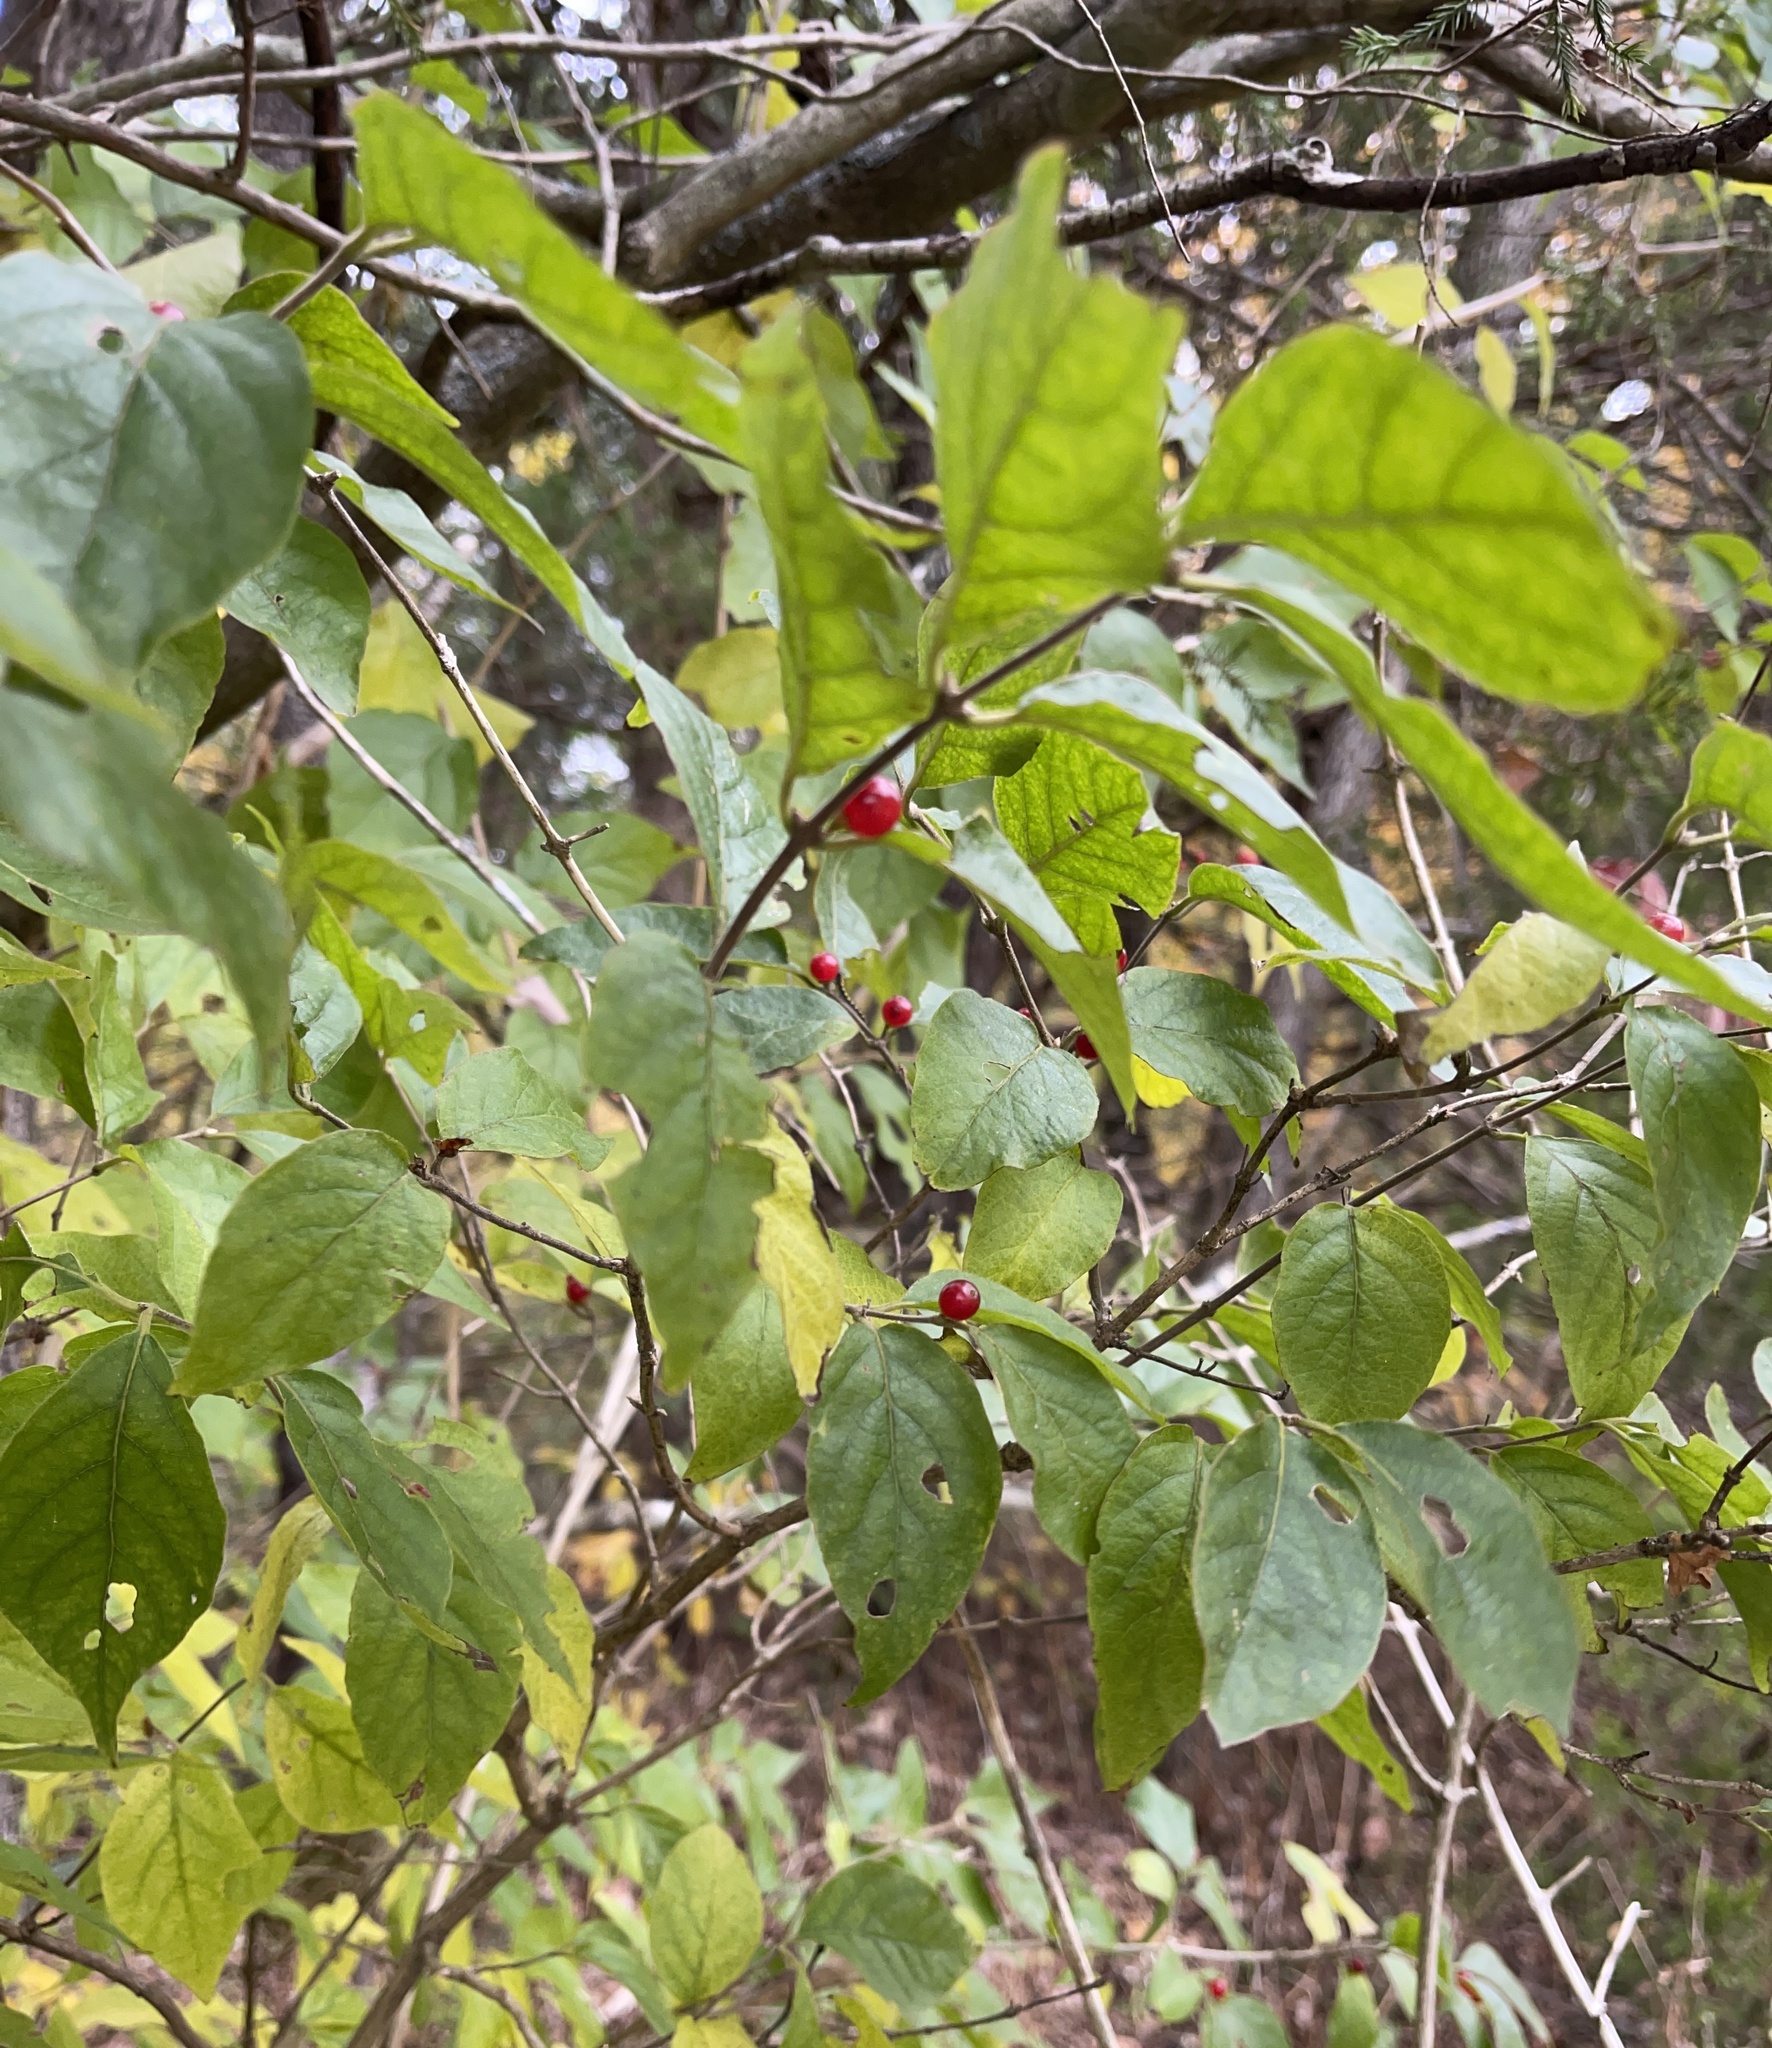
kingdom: Plantae
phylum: Tracheophyta
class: Magnoliopsida
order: Dipsacales
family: Caprifoliaceae
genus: Lonicera
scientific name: Lonicera maackii
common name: Amur honeysuckle
